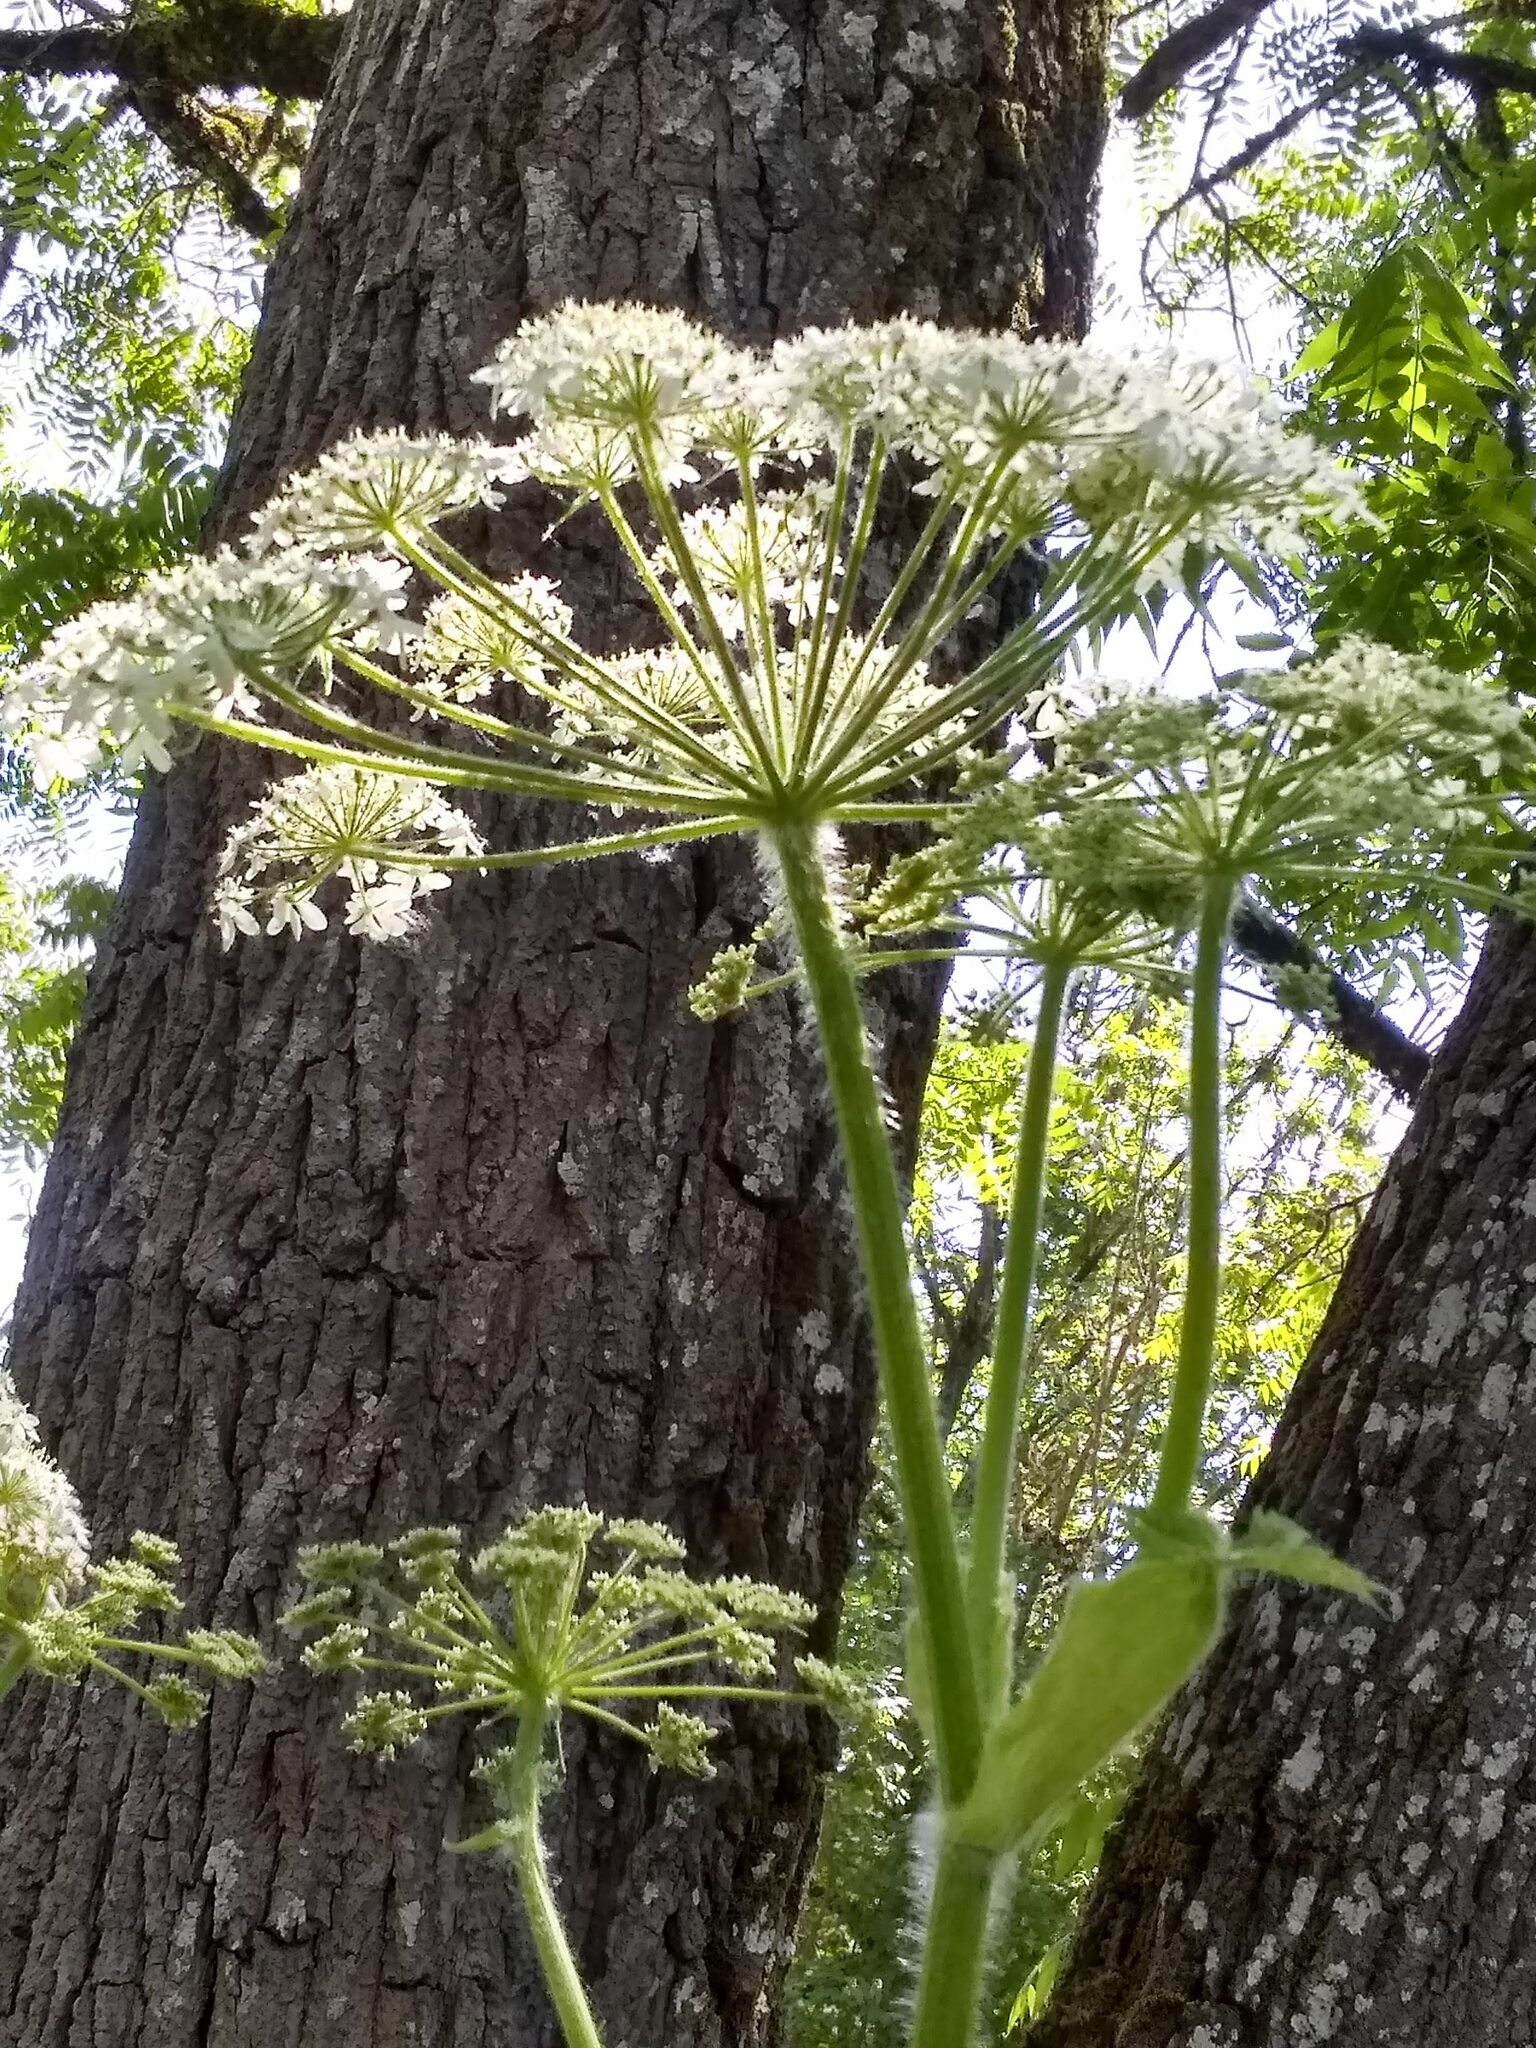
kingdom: Plantae
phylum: Tracheophyta
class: Magnoliopsida
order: Apiales
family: Apiaceae
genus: Heracleum
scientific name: Heracleum maximum
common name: American cow parsnip
